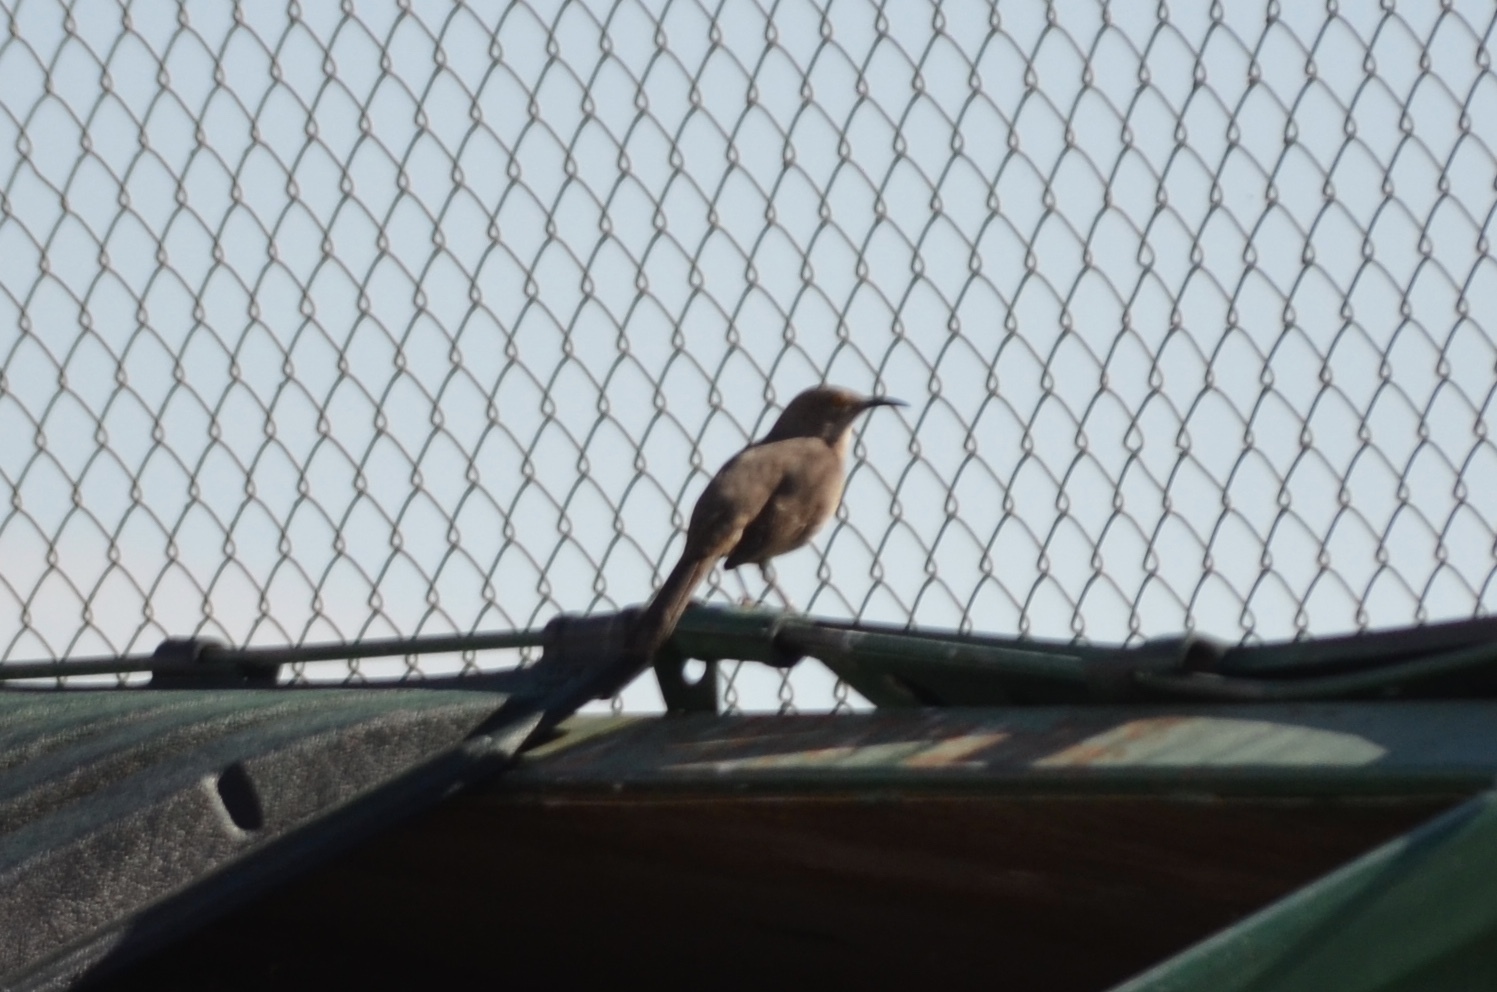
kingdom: Animalia
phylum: Chordata
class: Aves
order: Passeriformes
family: Mimidae
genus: Toxostoma
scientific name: Toxostoma curvirostre
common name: Curve-billed thrasher
